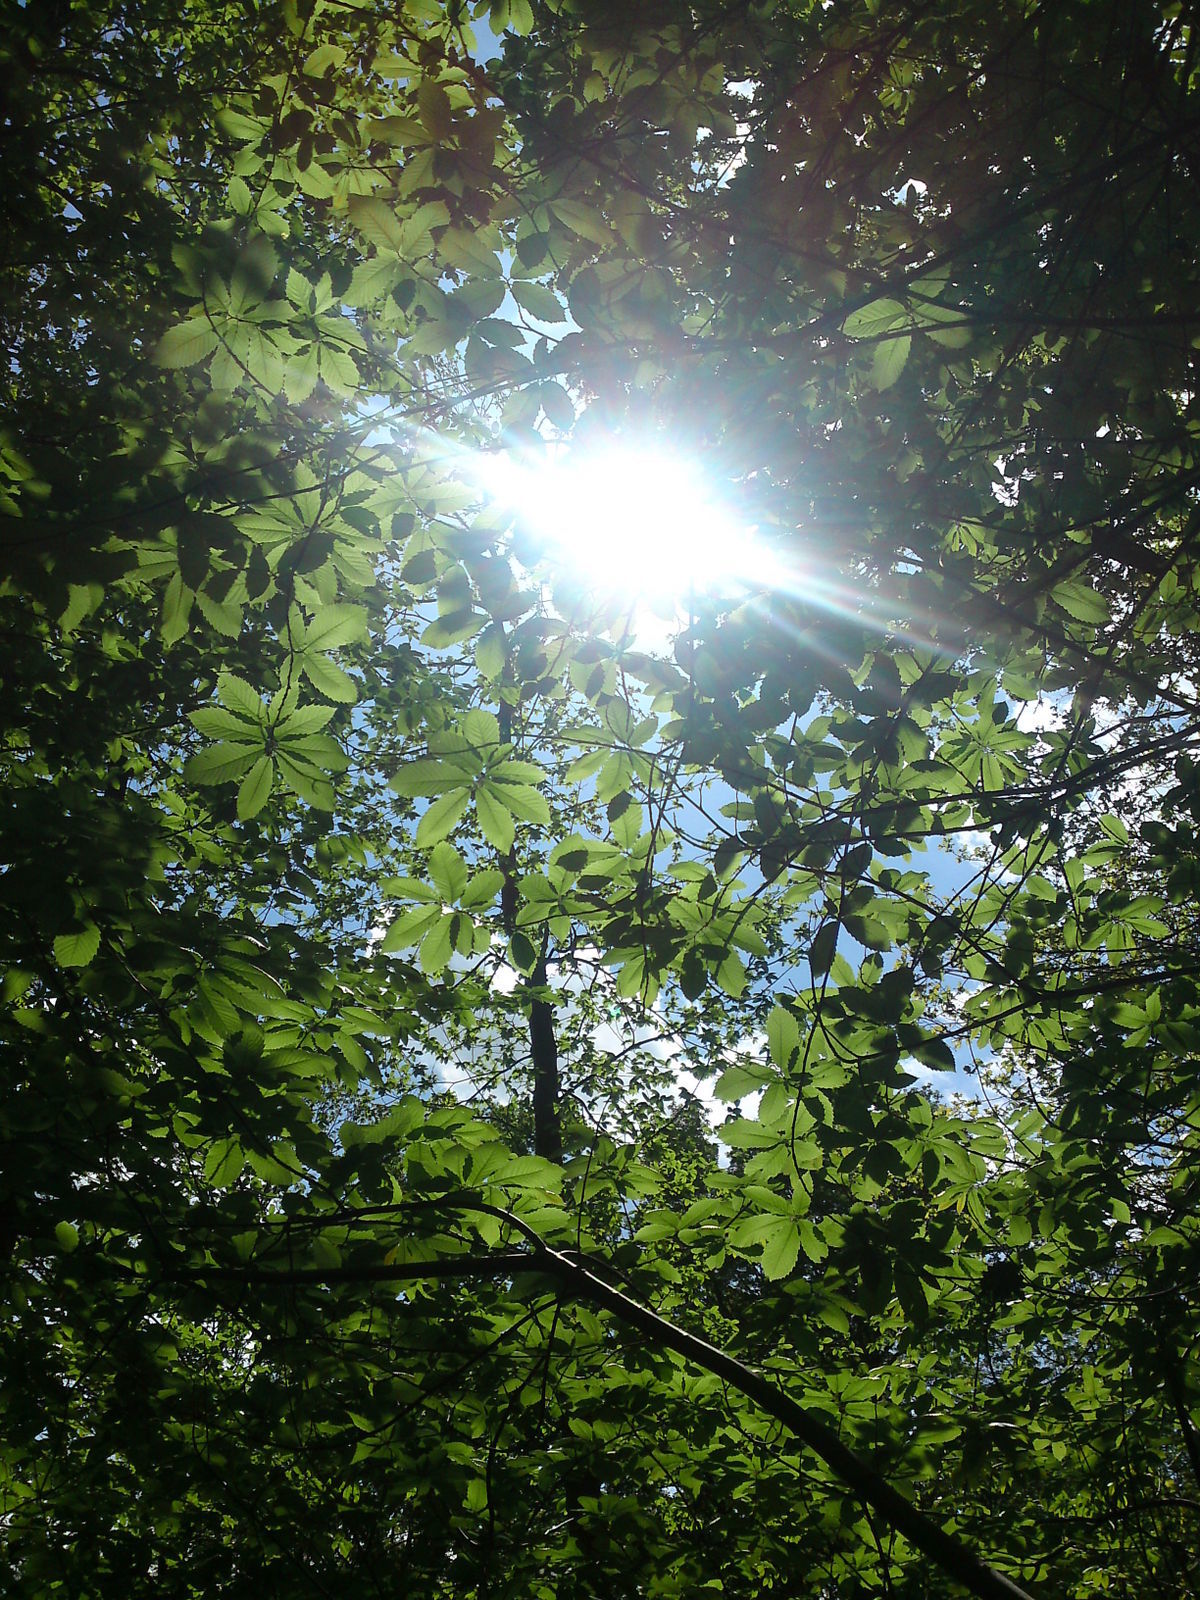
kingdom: Plantae
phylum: Tracheophyta
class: Magnoliopsida
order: Fagales
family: Fagaceae
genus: Castanea
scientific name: Castanea sativa
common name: Sweet chestnut
